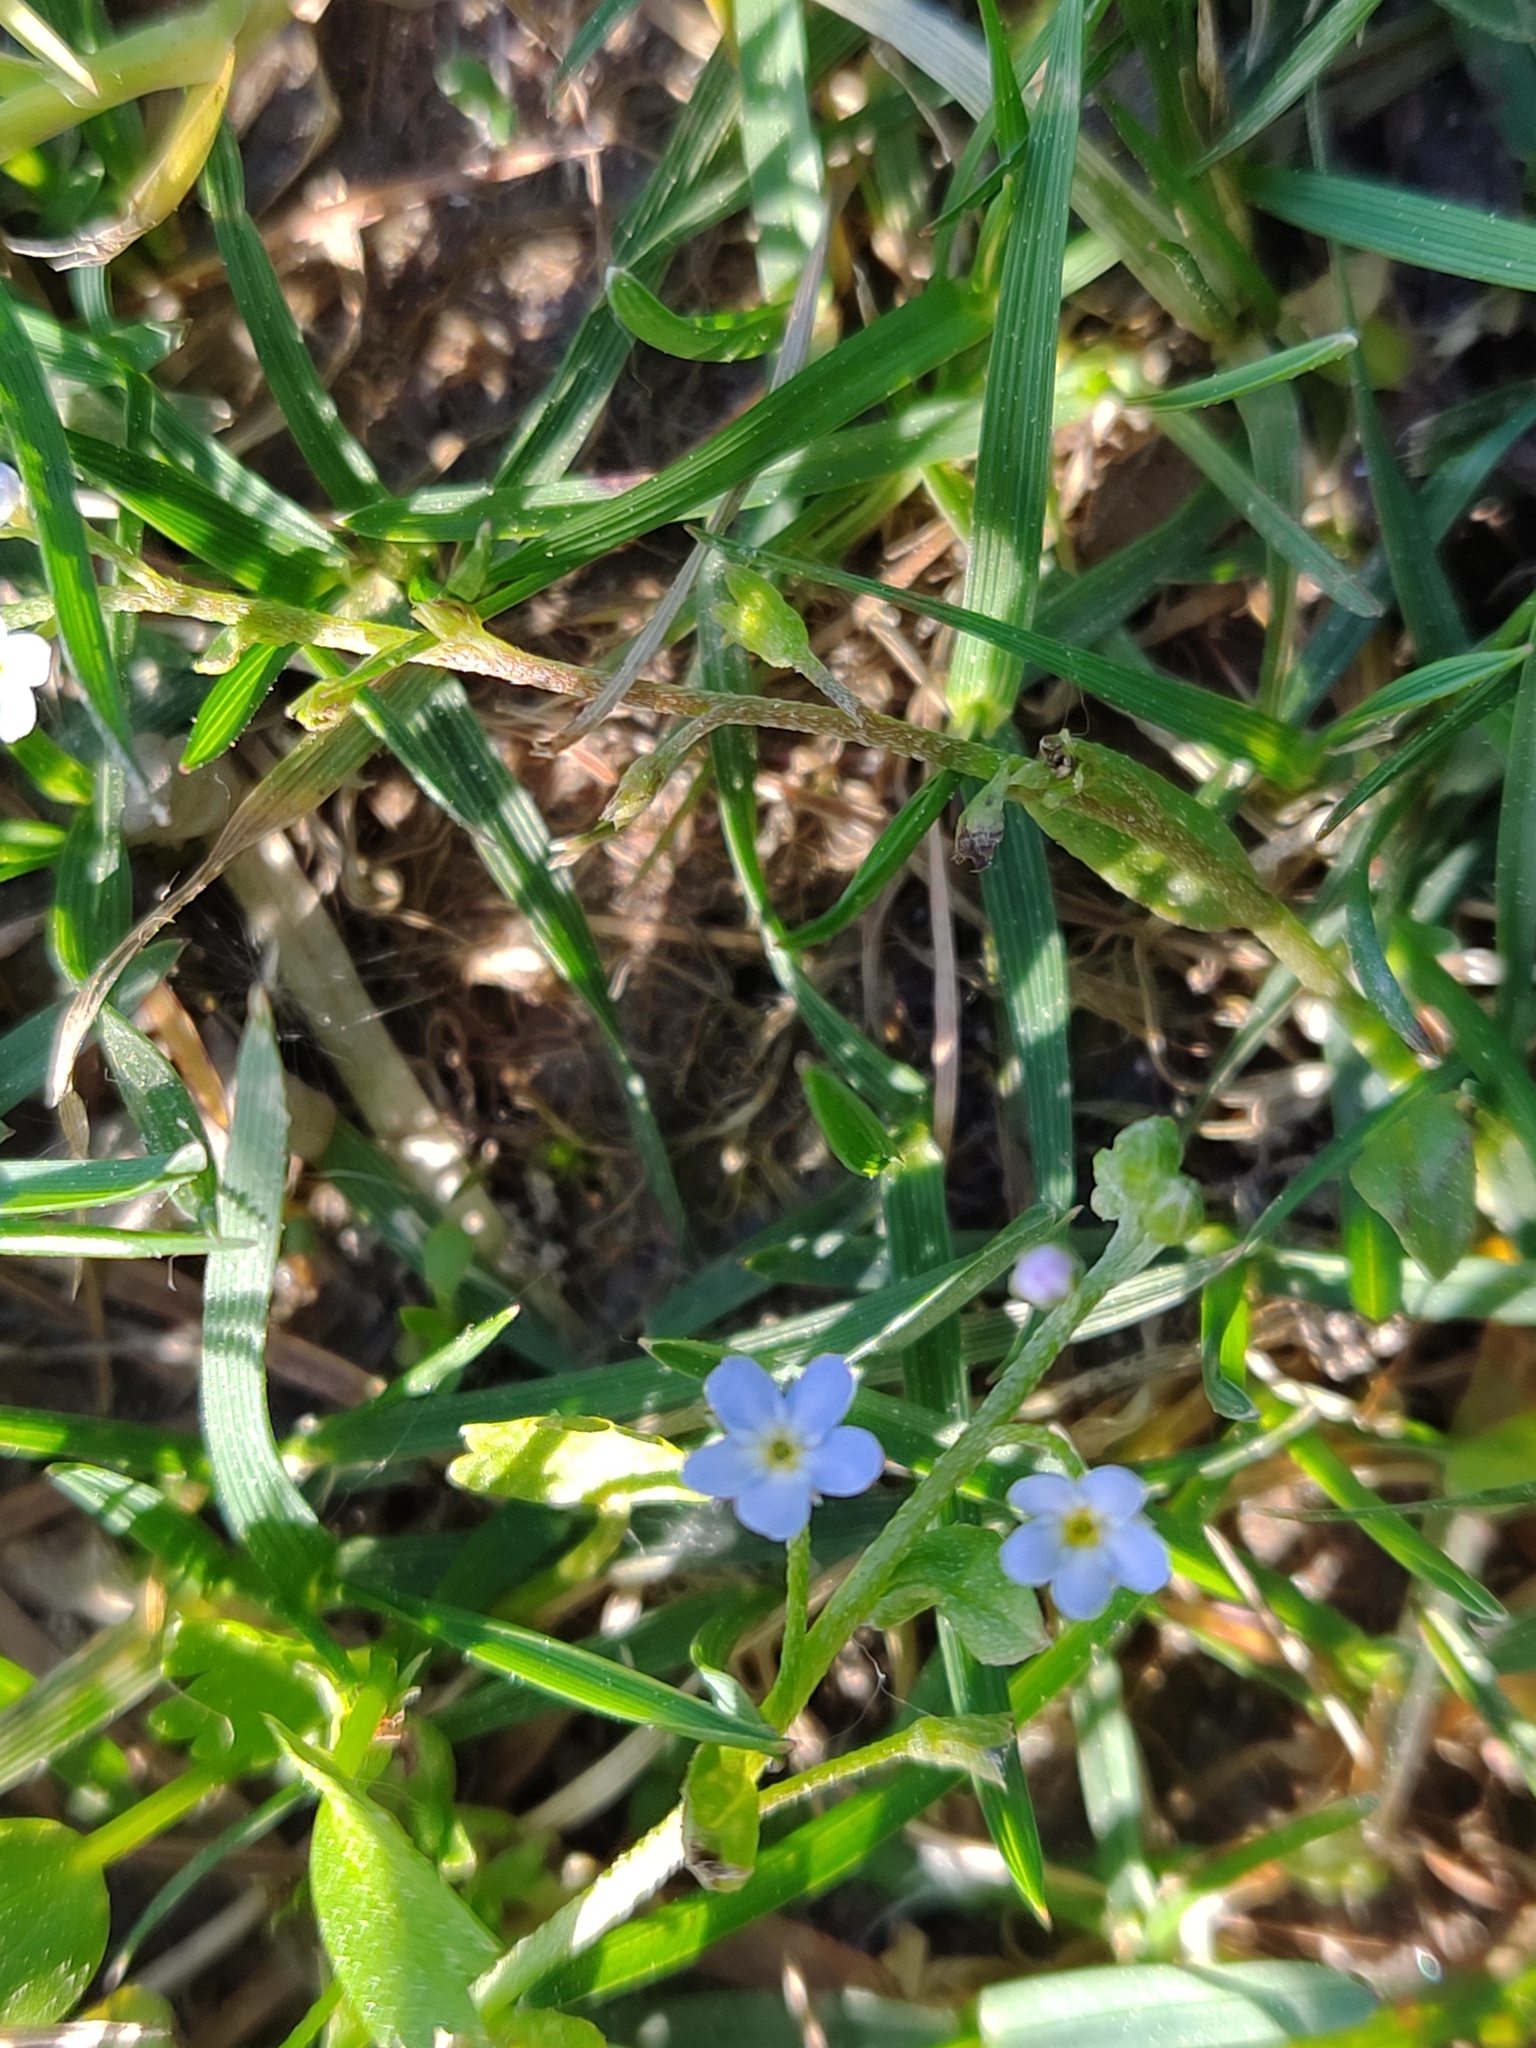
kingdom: Plantae
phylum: Tracheophyta
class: Magnoliopsida
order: Boraginales
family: Boraginaceae
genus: Myosotis
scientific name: Myosotis debilis
